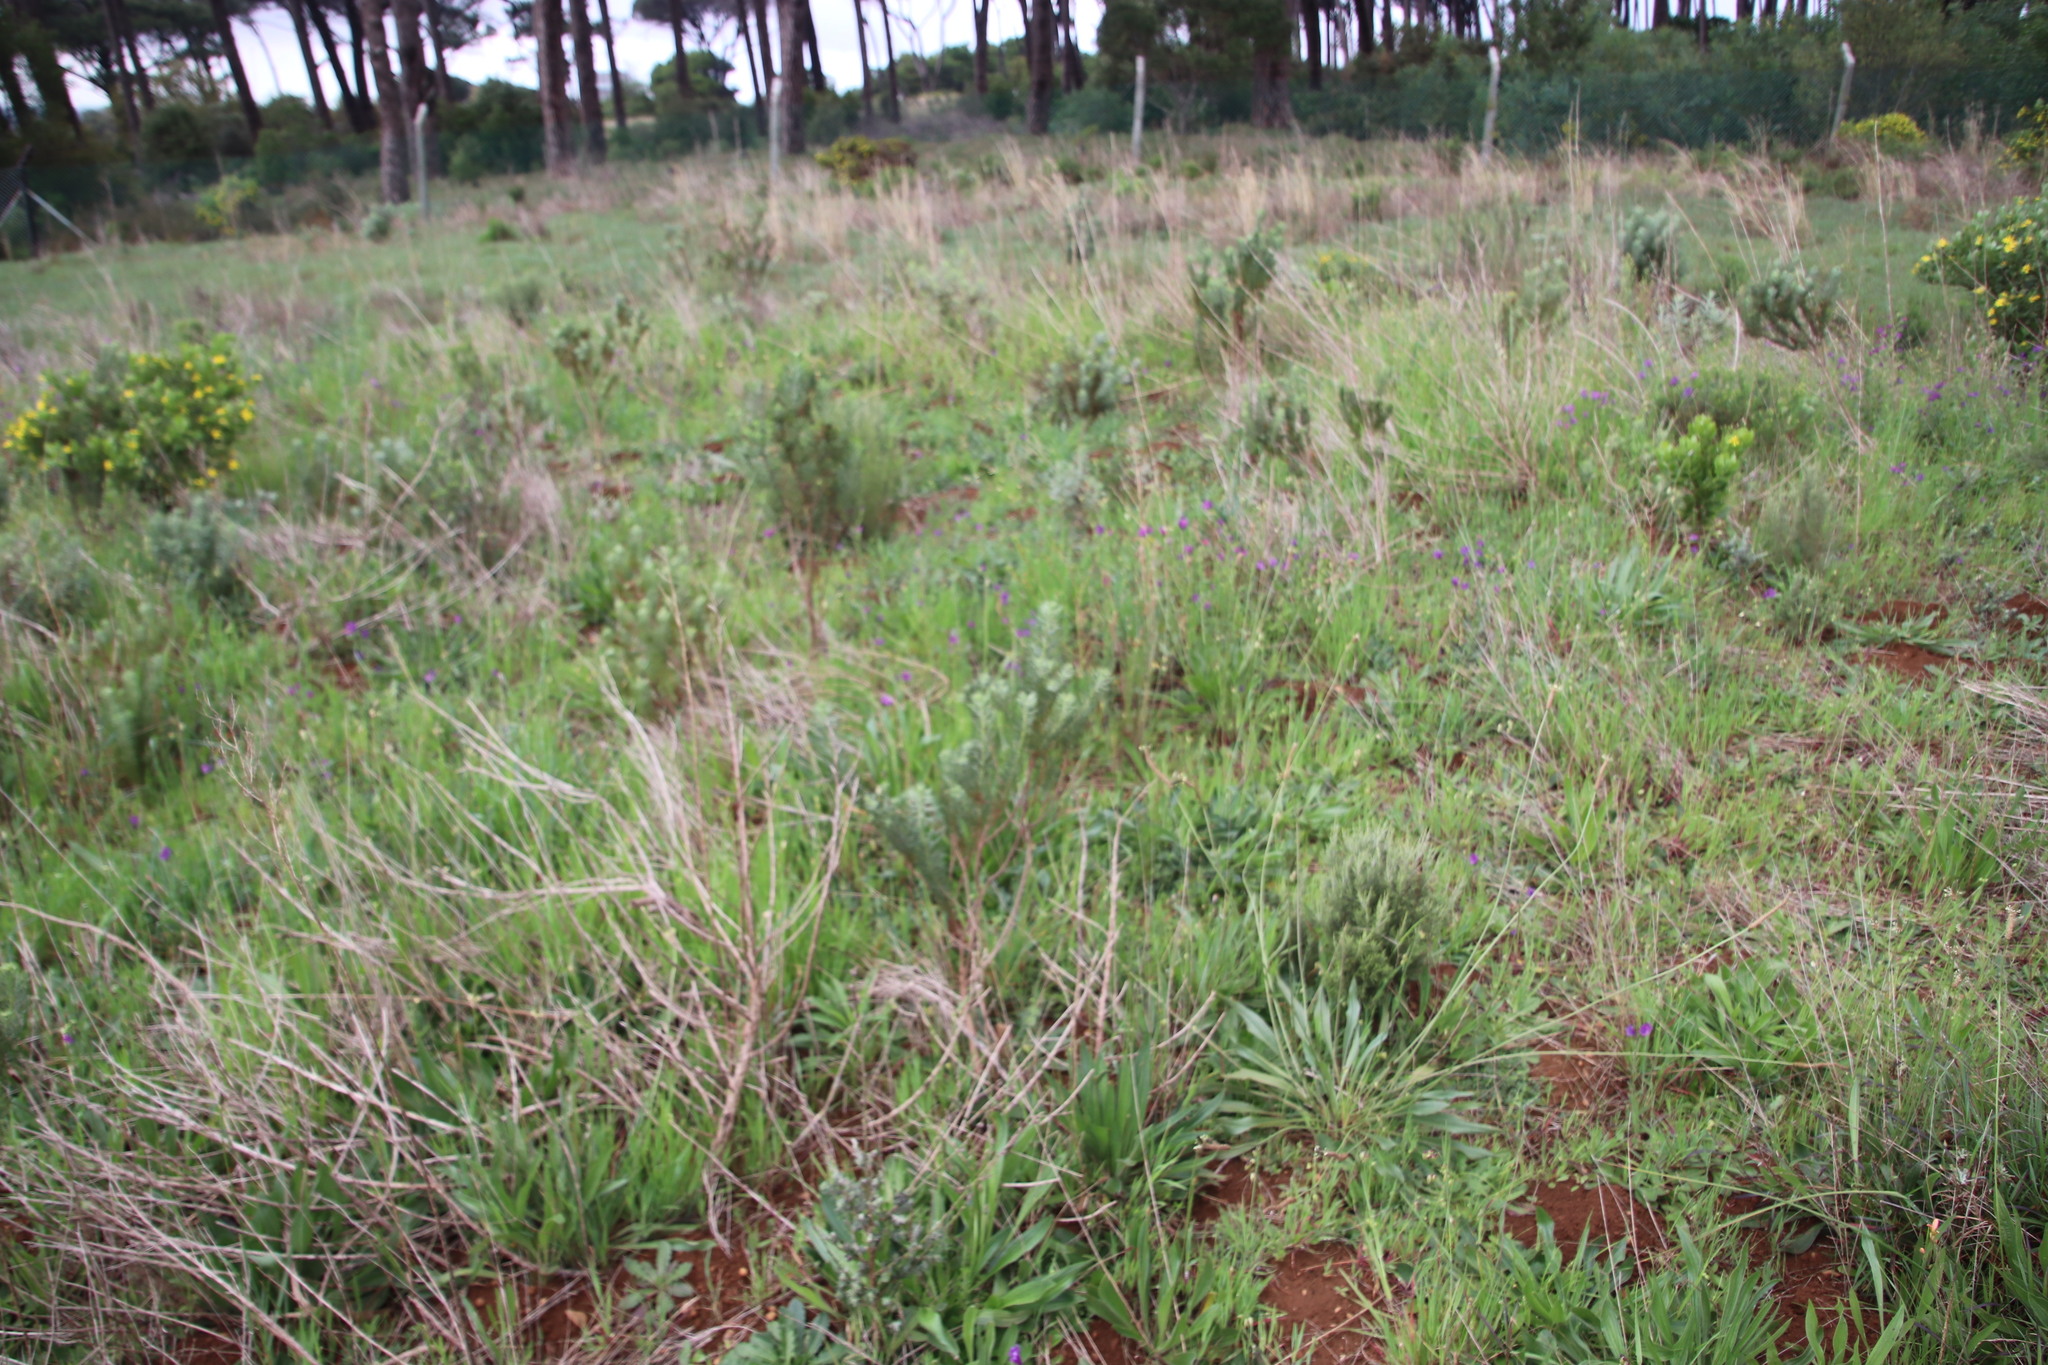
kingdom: Plantae
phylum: Tracheophyta
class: Magnoliopsida
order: Asterales
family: Asteraceae
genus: Athanasia
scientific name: Athanasia crithmifolia
